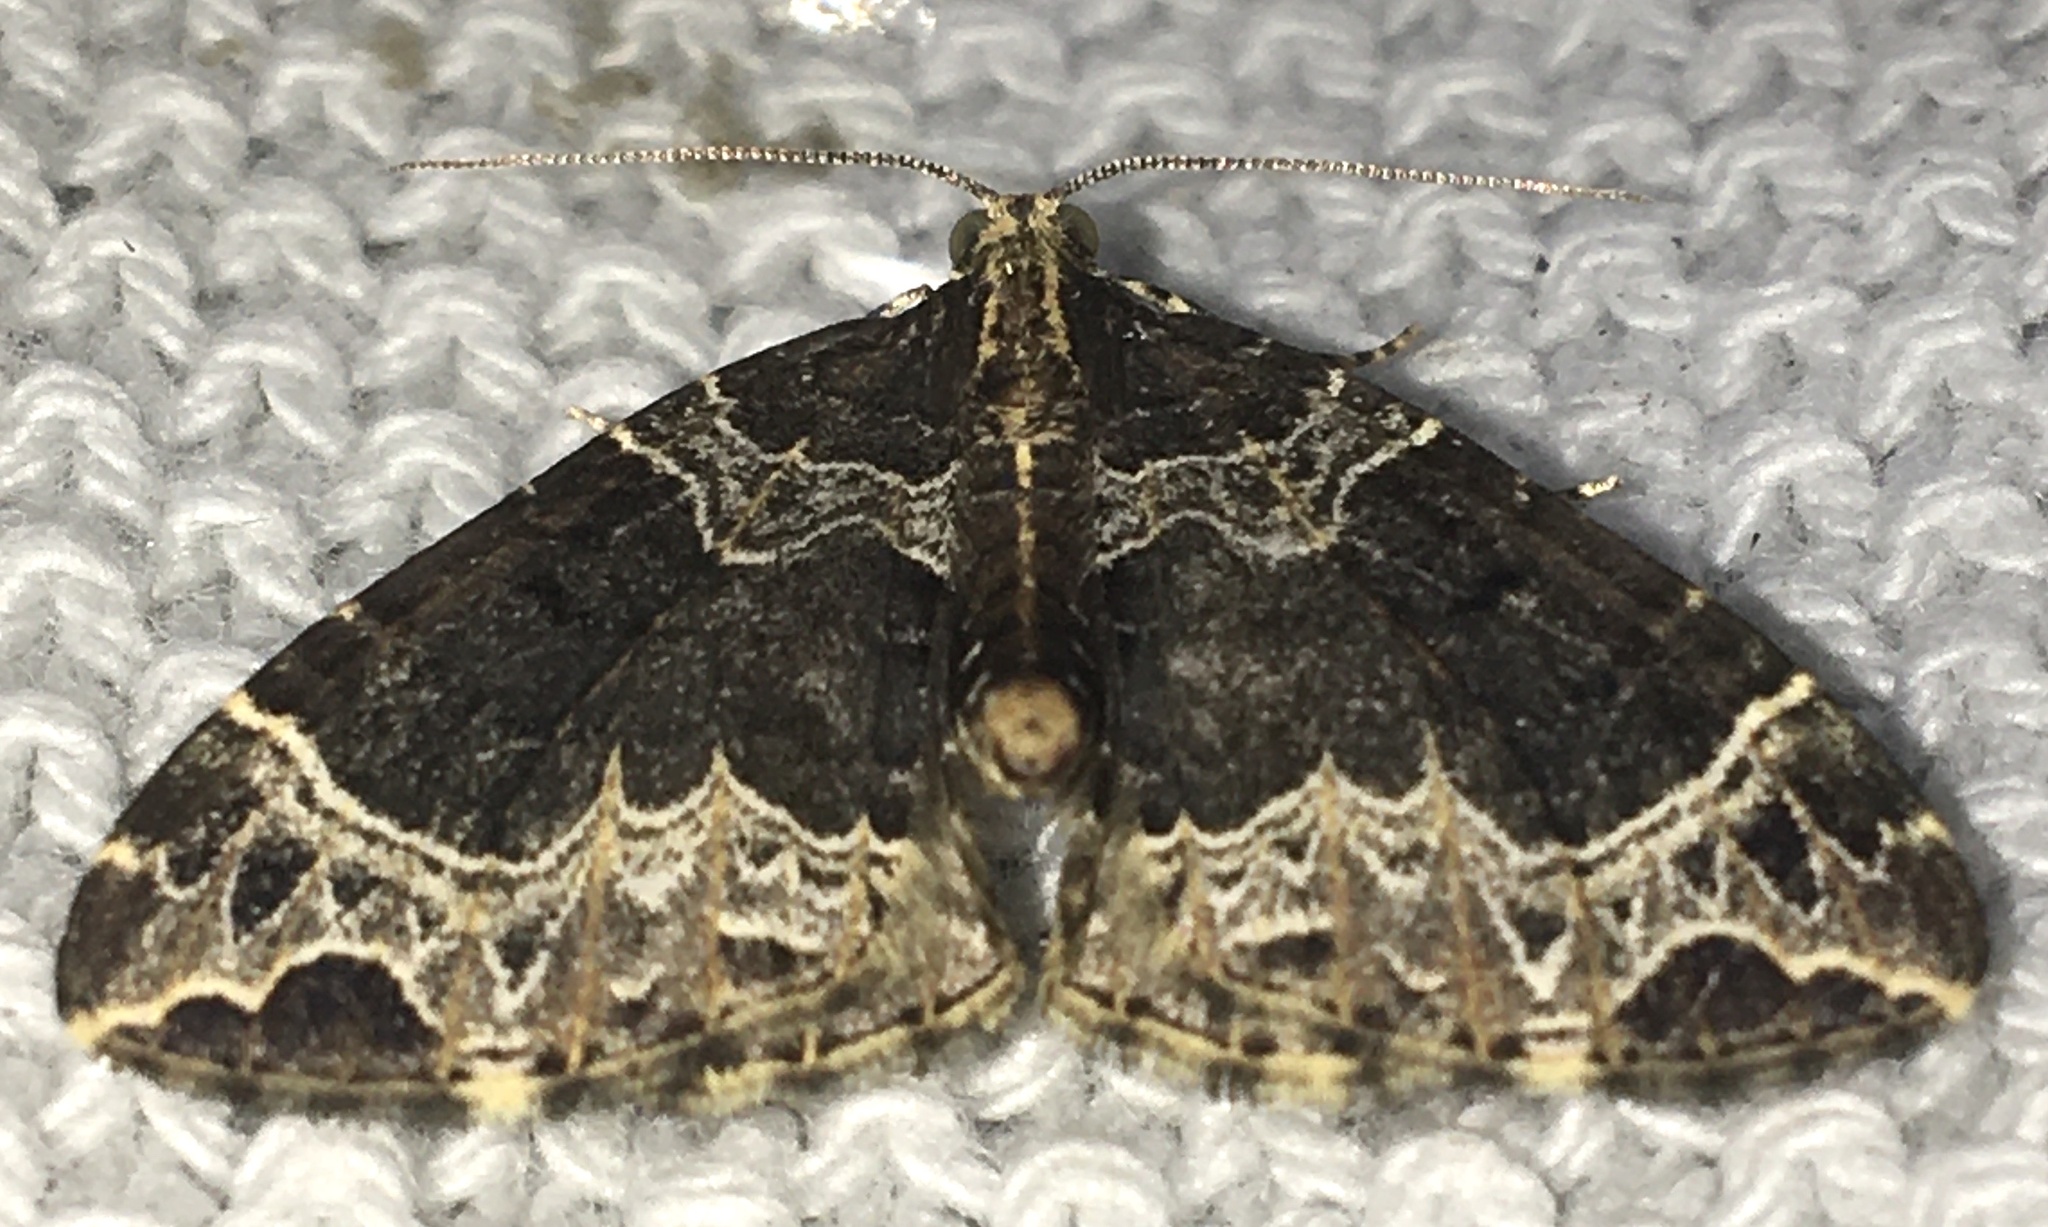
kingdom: Animalia
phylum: Arthropoda
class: Insecta
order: Lepidoptera
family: Geometridae
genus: Ecliptopera
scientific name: Ecliptopera silaceata
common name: Small phoenix
